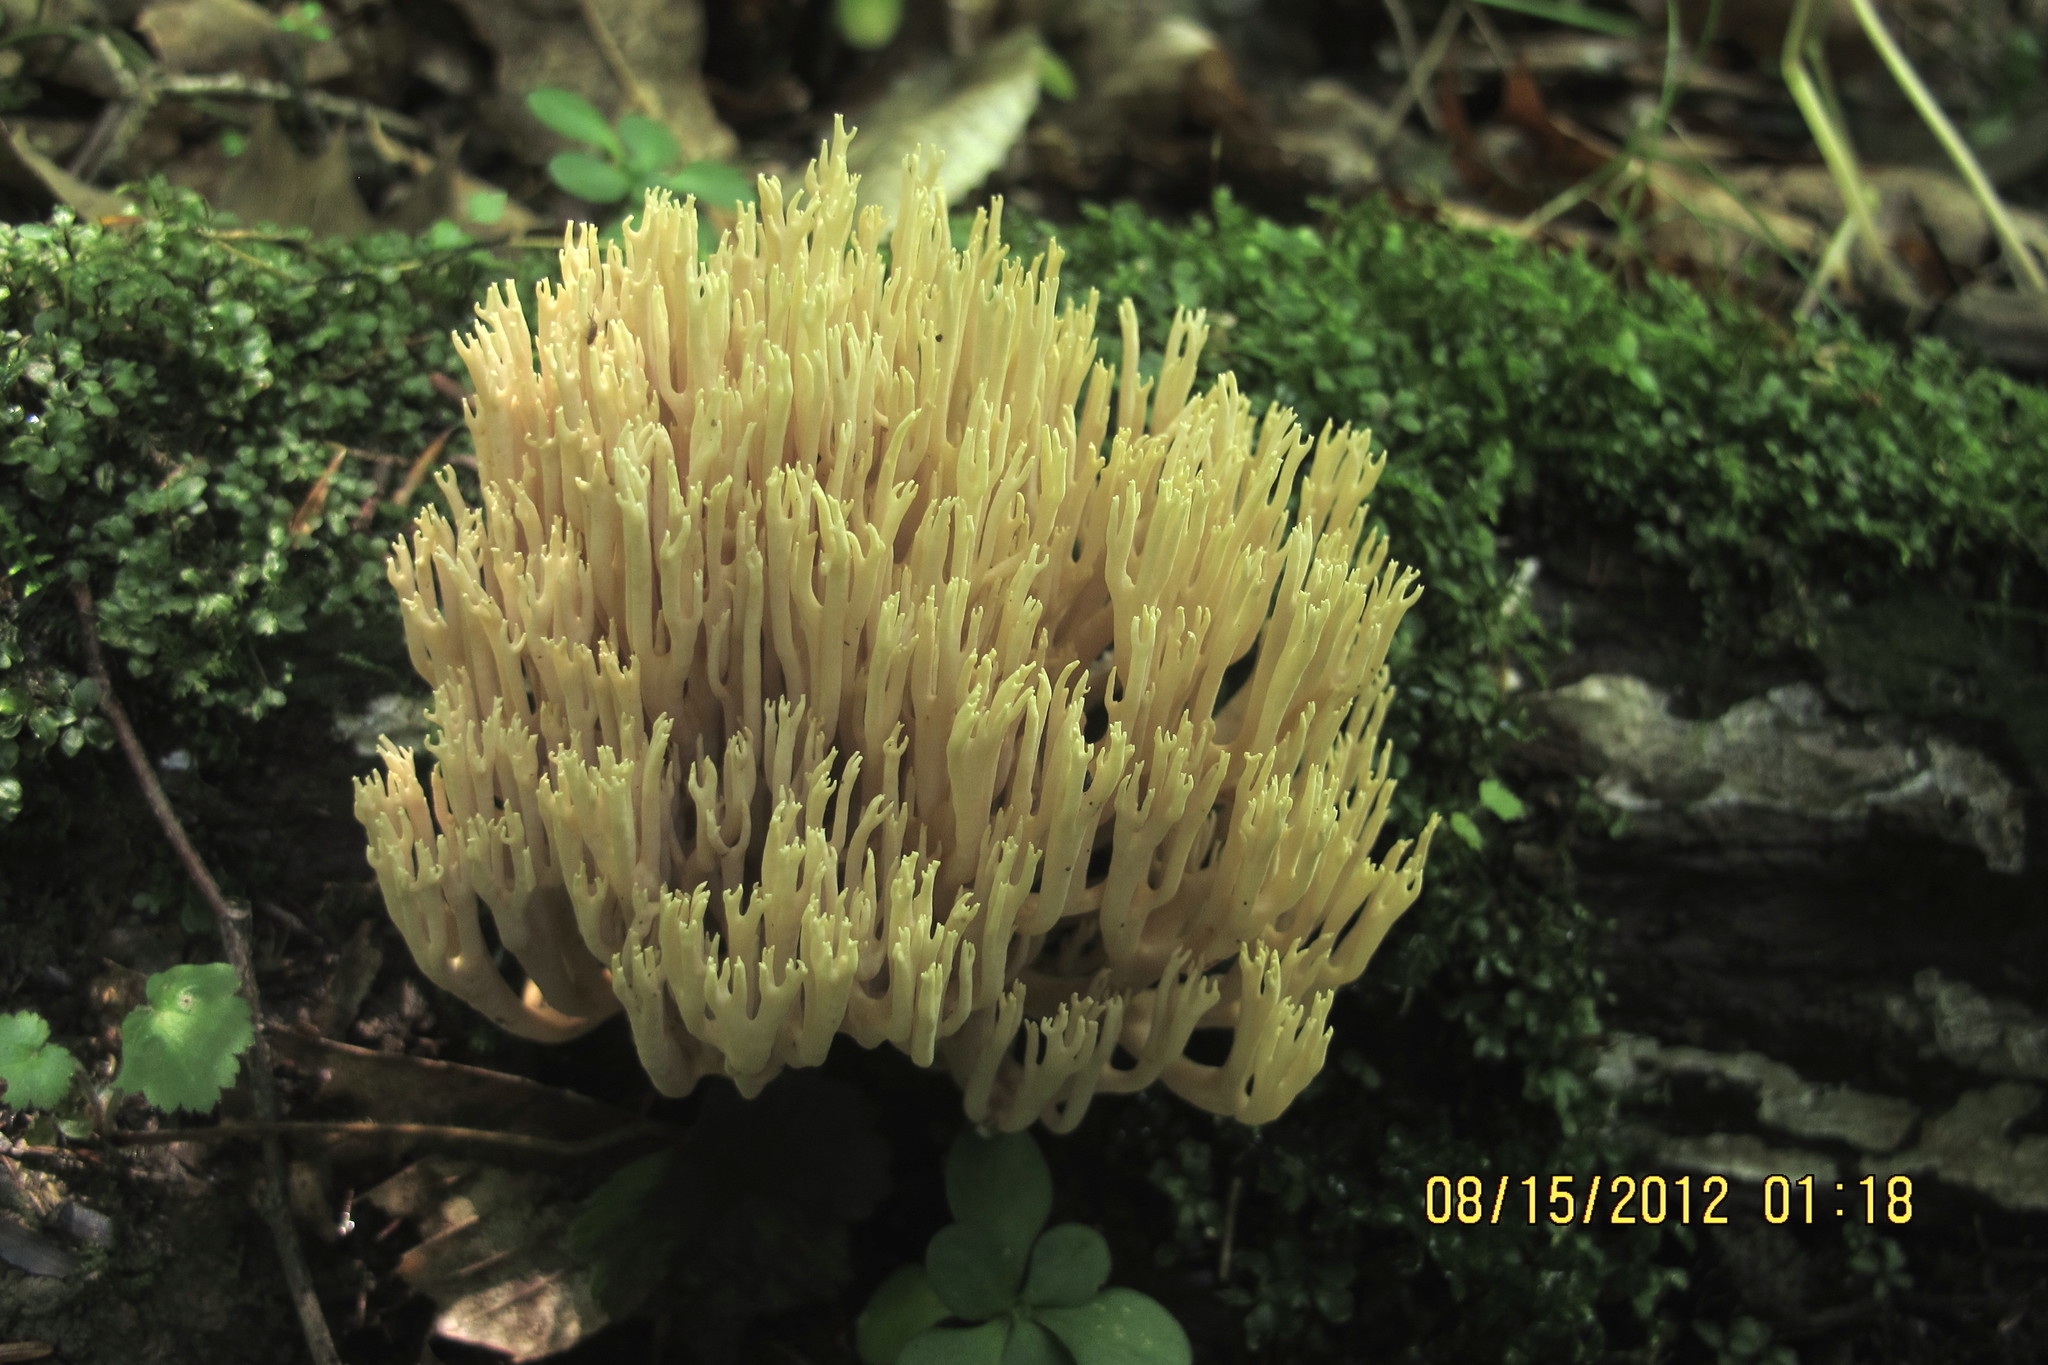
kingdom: Fungi
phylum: Basidiomycota
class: Agaricomycetes
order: Gomphales
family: Gomphaceae
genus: Ramaria
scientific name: Ramaria stricta
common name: Upright coral
